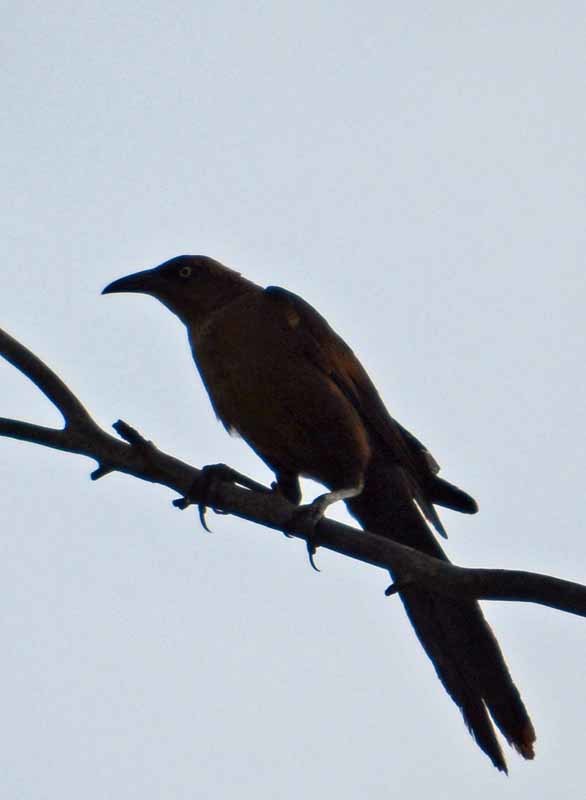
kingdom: Animalia
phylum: Chordata
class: Aves
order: Passeriformes
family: Icteridae
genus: Quiscalus
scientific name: Quiscalus mexicanus
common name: Great-tailed grackle
